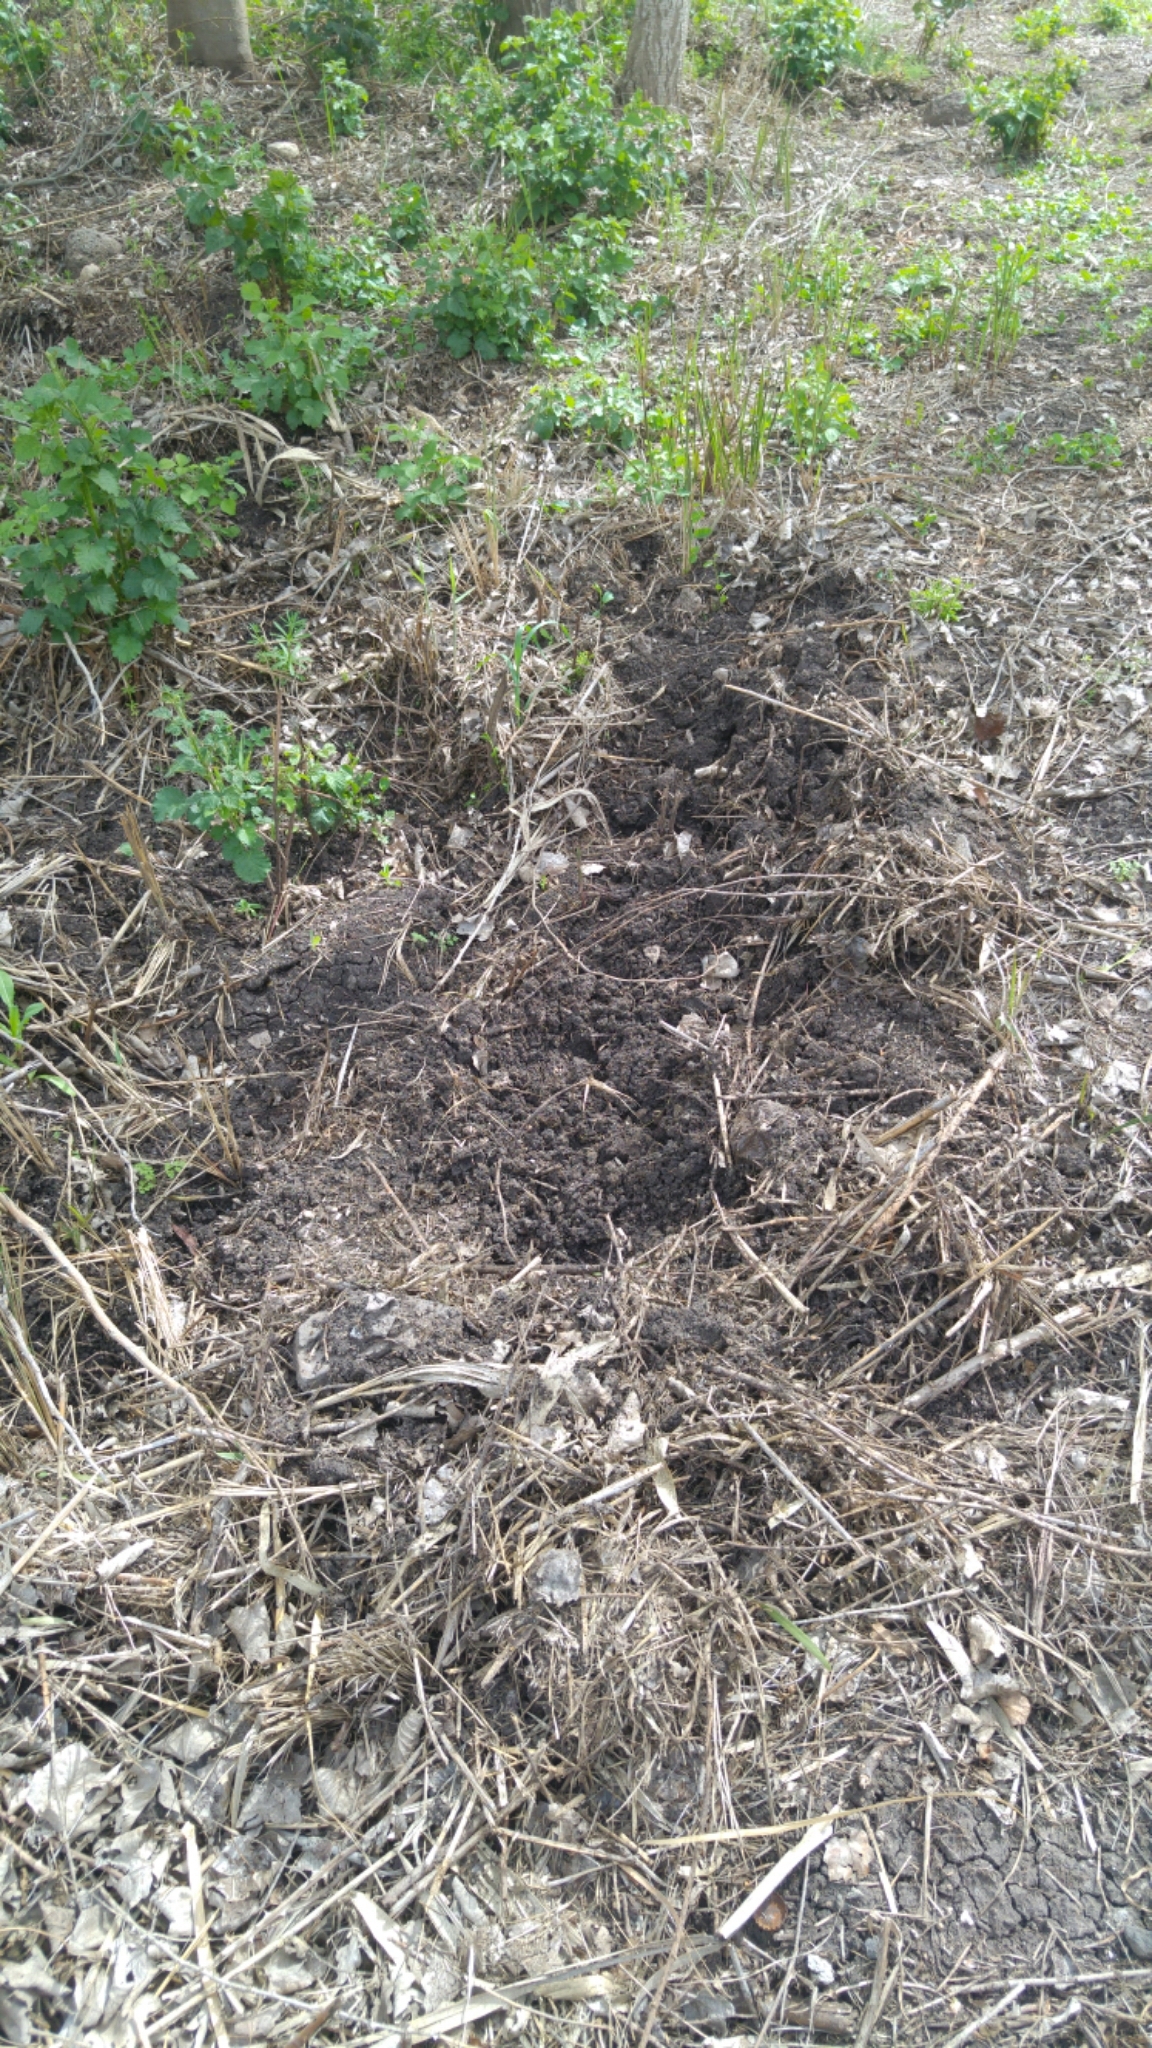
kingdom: Animalia
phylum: Chordata
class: Mammalia
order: Artiodactyla
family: Suidae
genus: Sus
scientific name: Sus scrofa
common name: Wild boar
